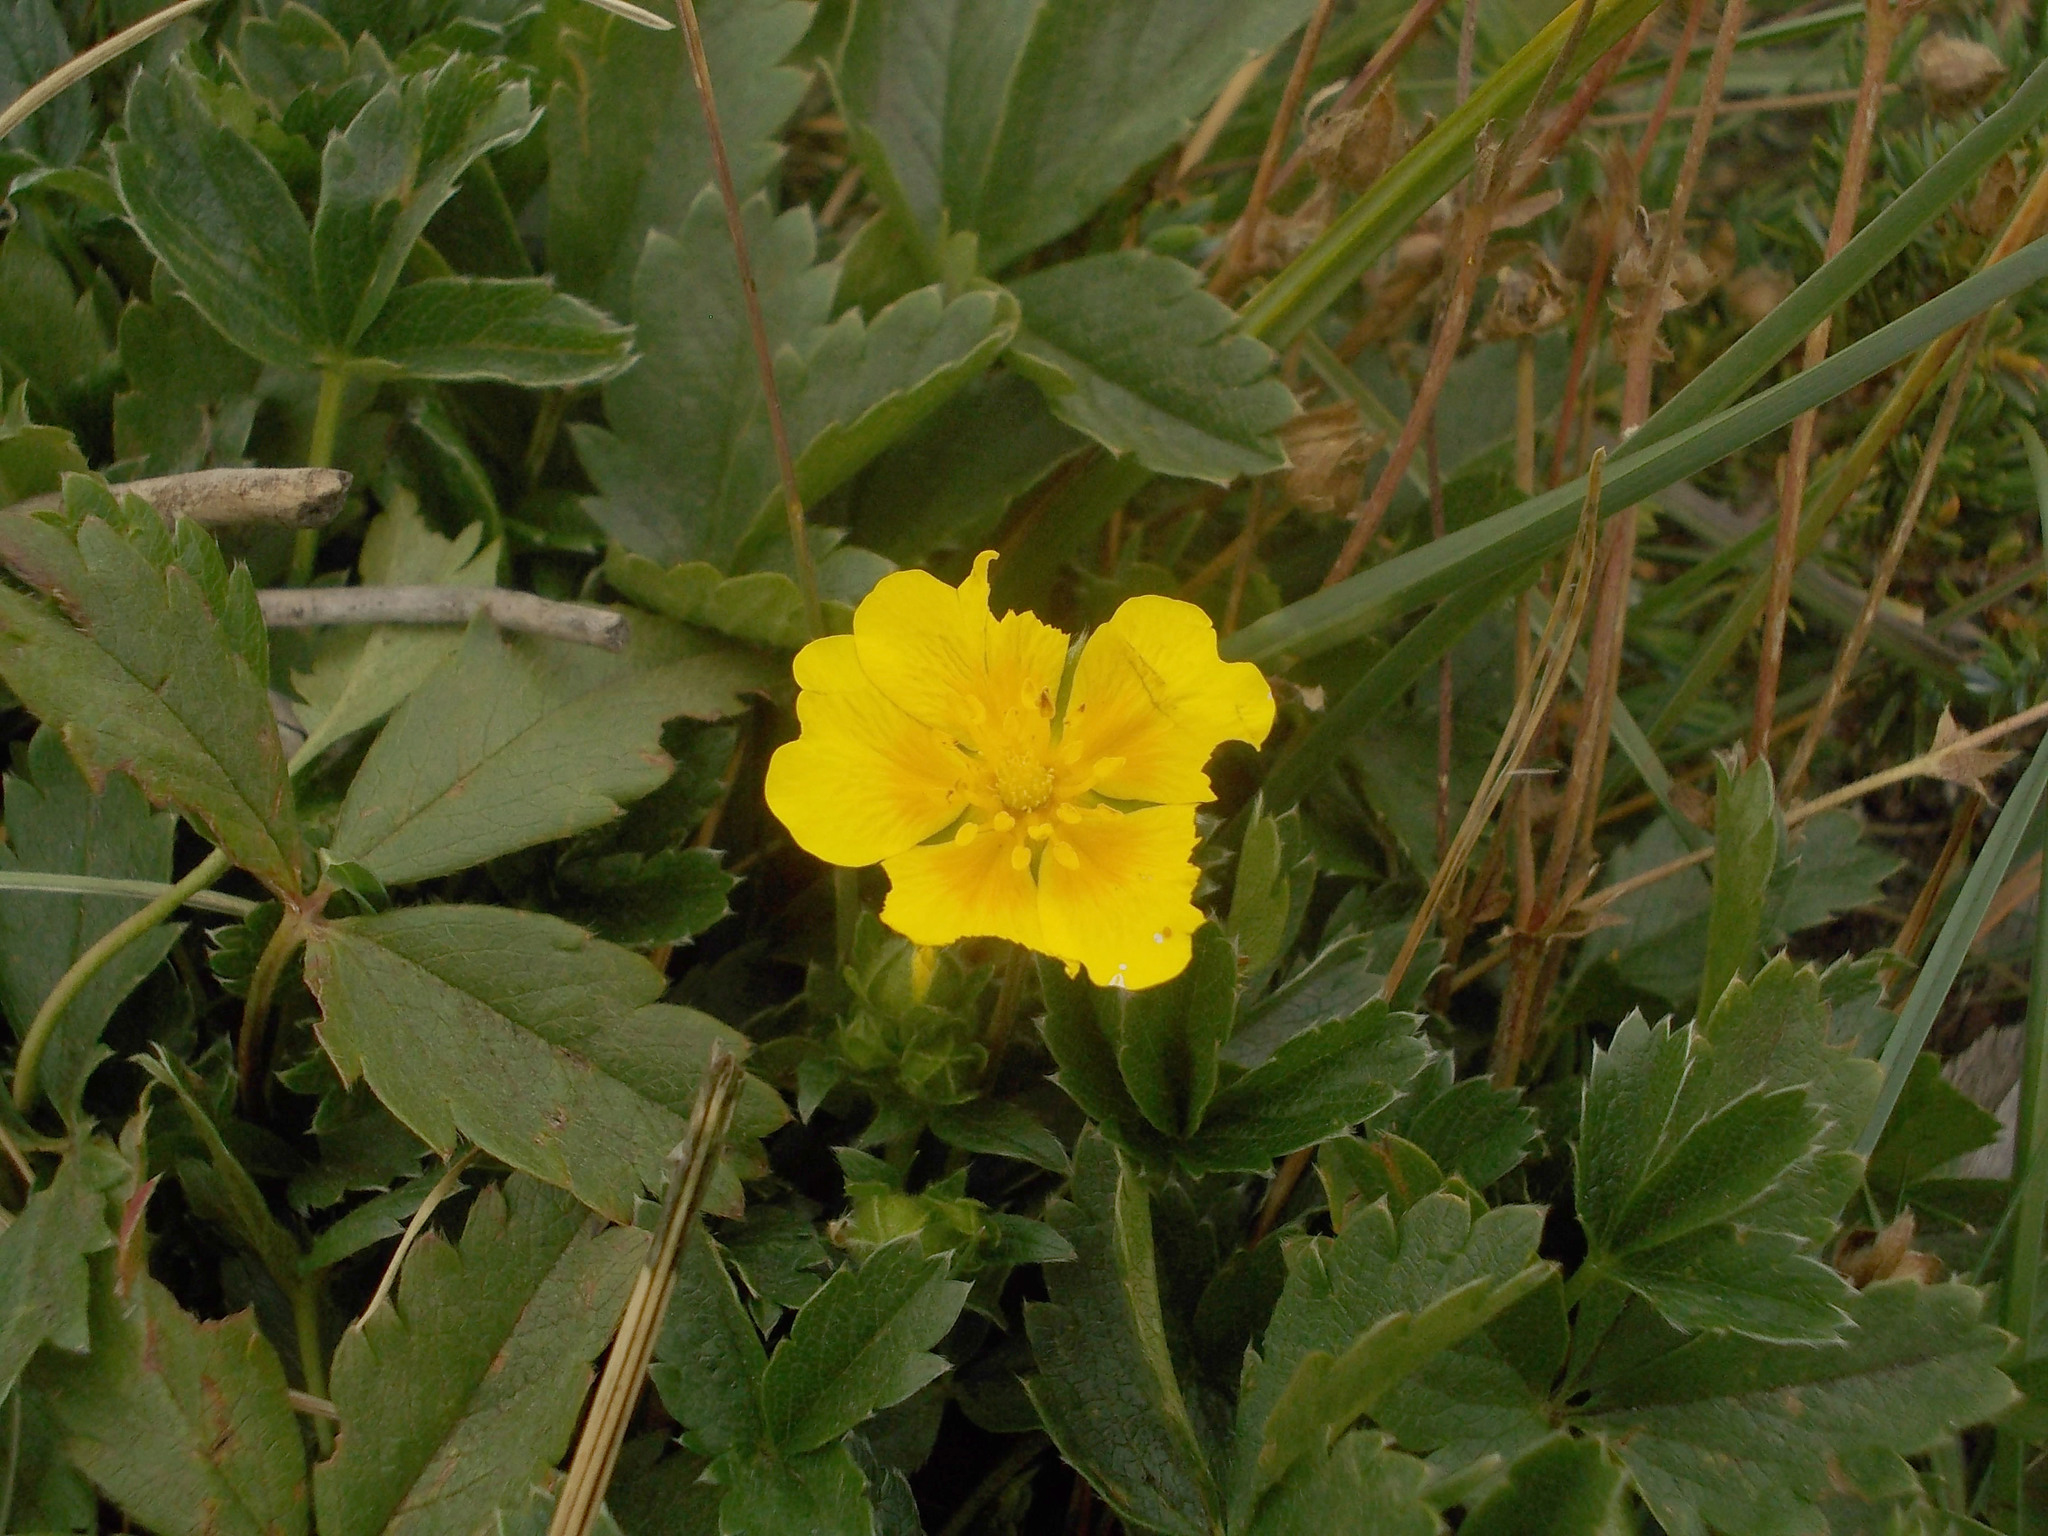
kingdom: Plantae
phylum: Tracheophyta
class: Magnoliopsida
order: Rosales
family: Rosaceae
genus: Potentilla
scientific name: Potentilla
